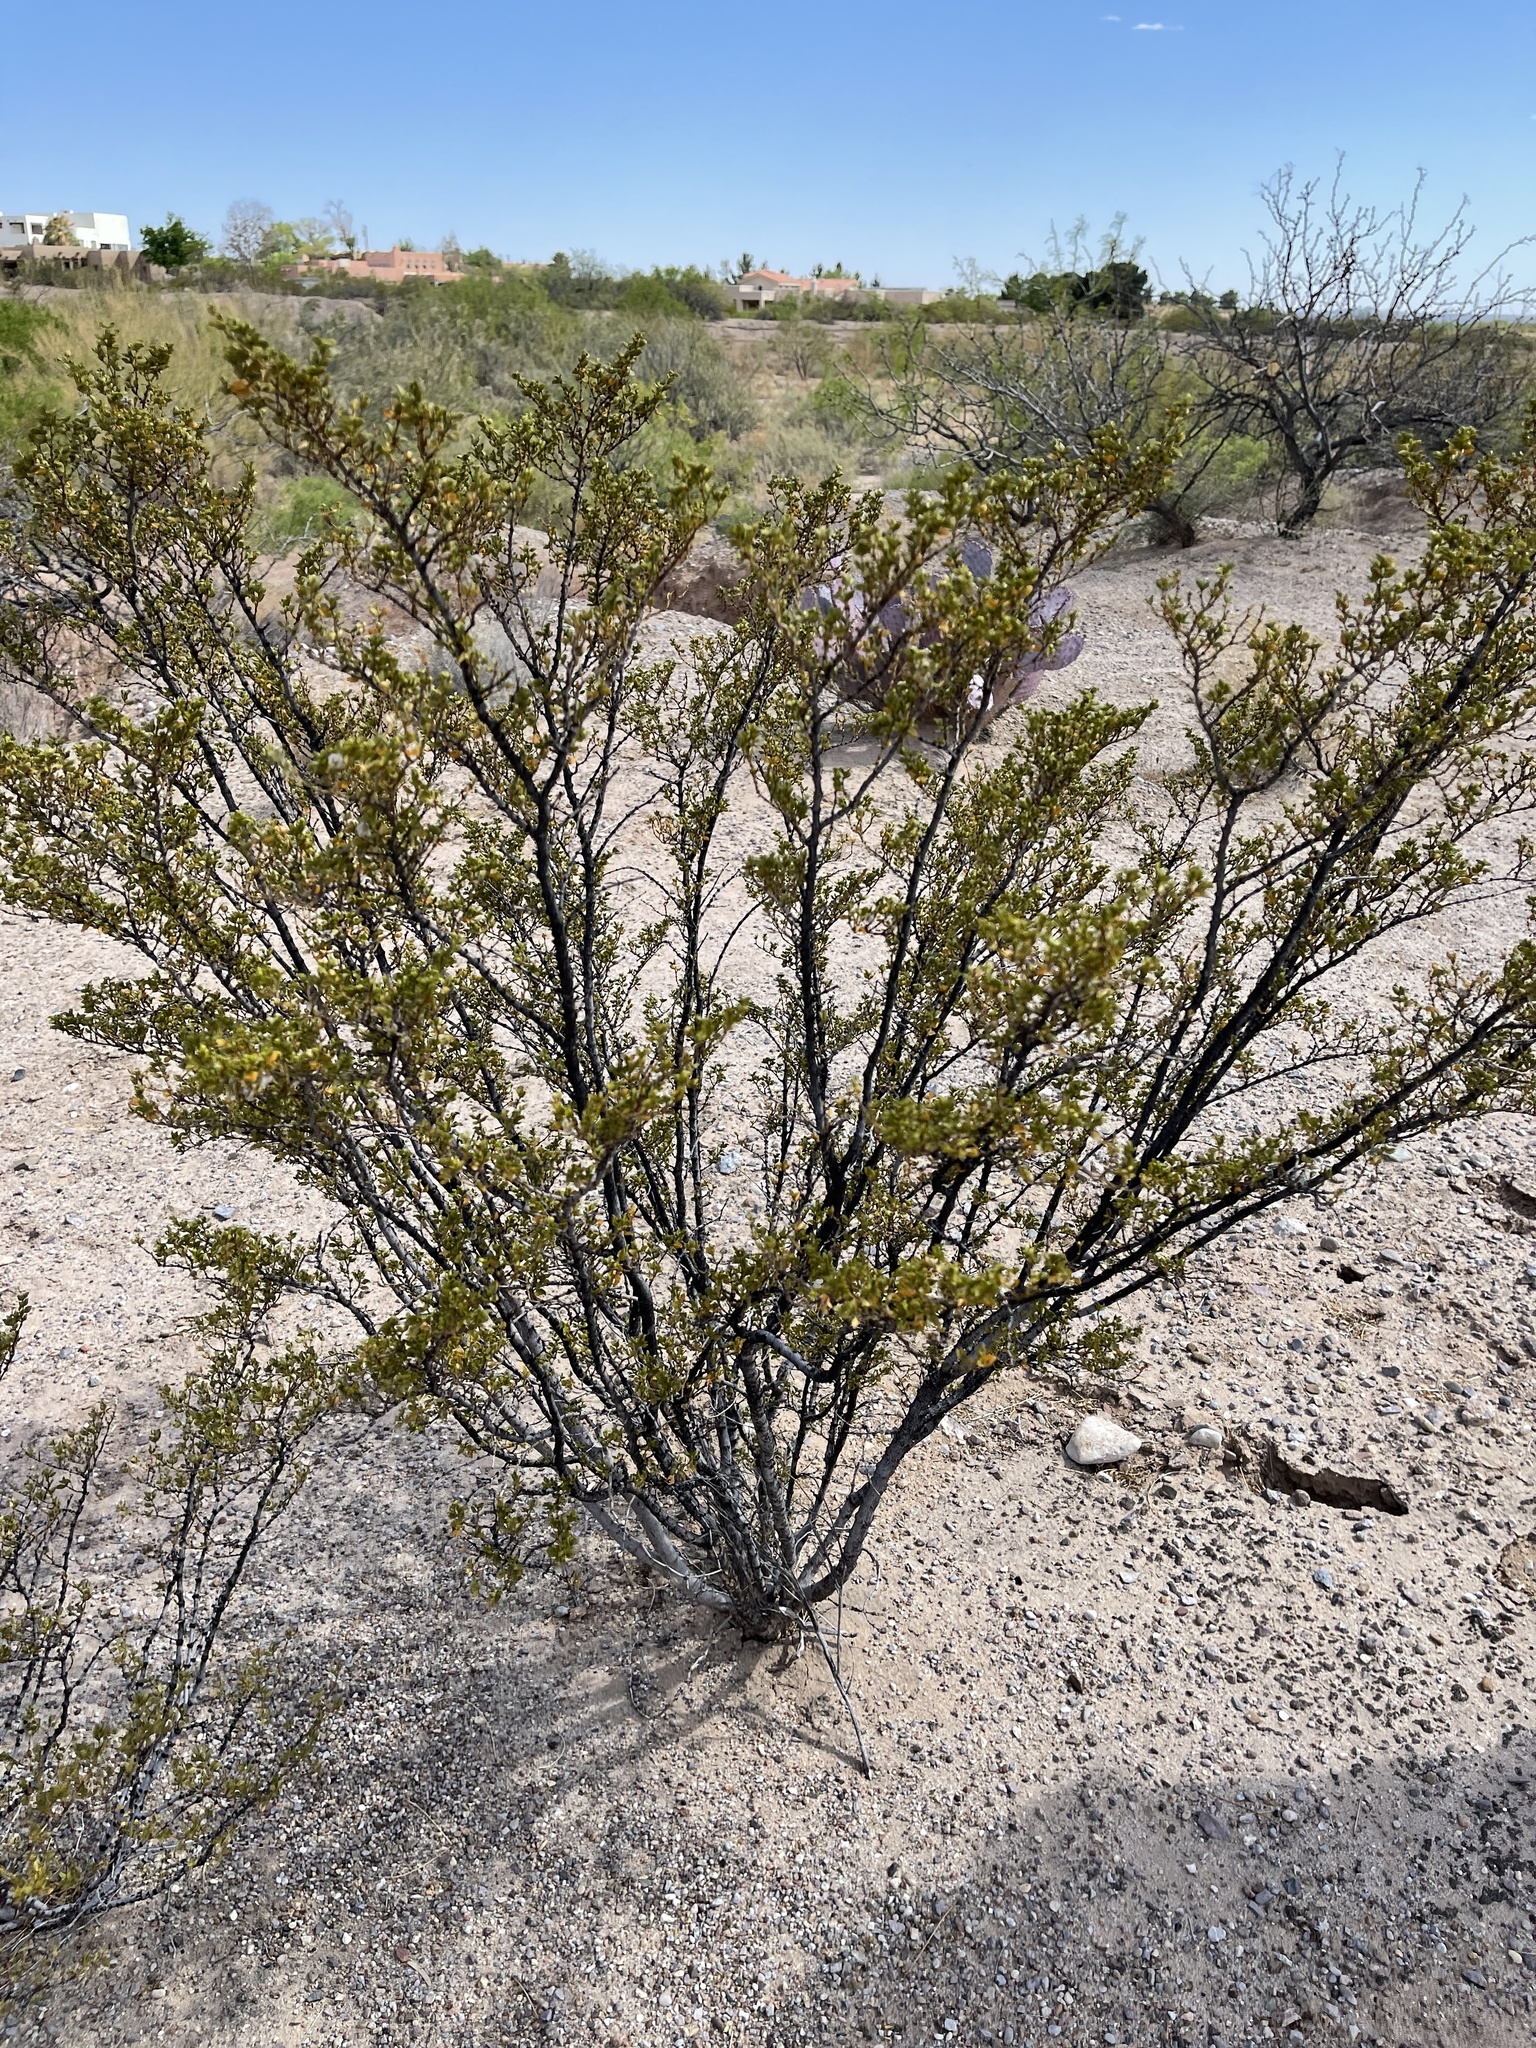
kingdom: Plantae
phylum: Tracheophyta
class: Magnoliopsida
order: Zygophyllales
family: Zygophyllaceae
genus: Larrea
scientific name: Larrea tridentata
